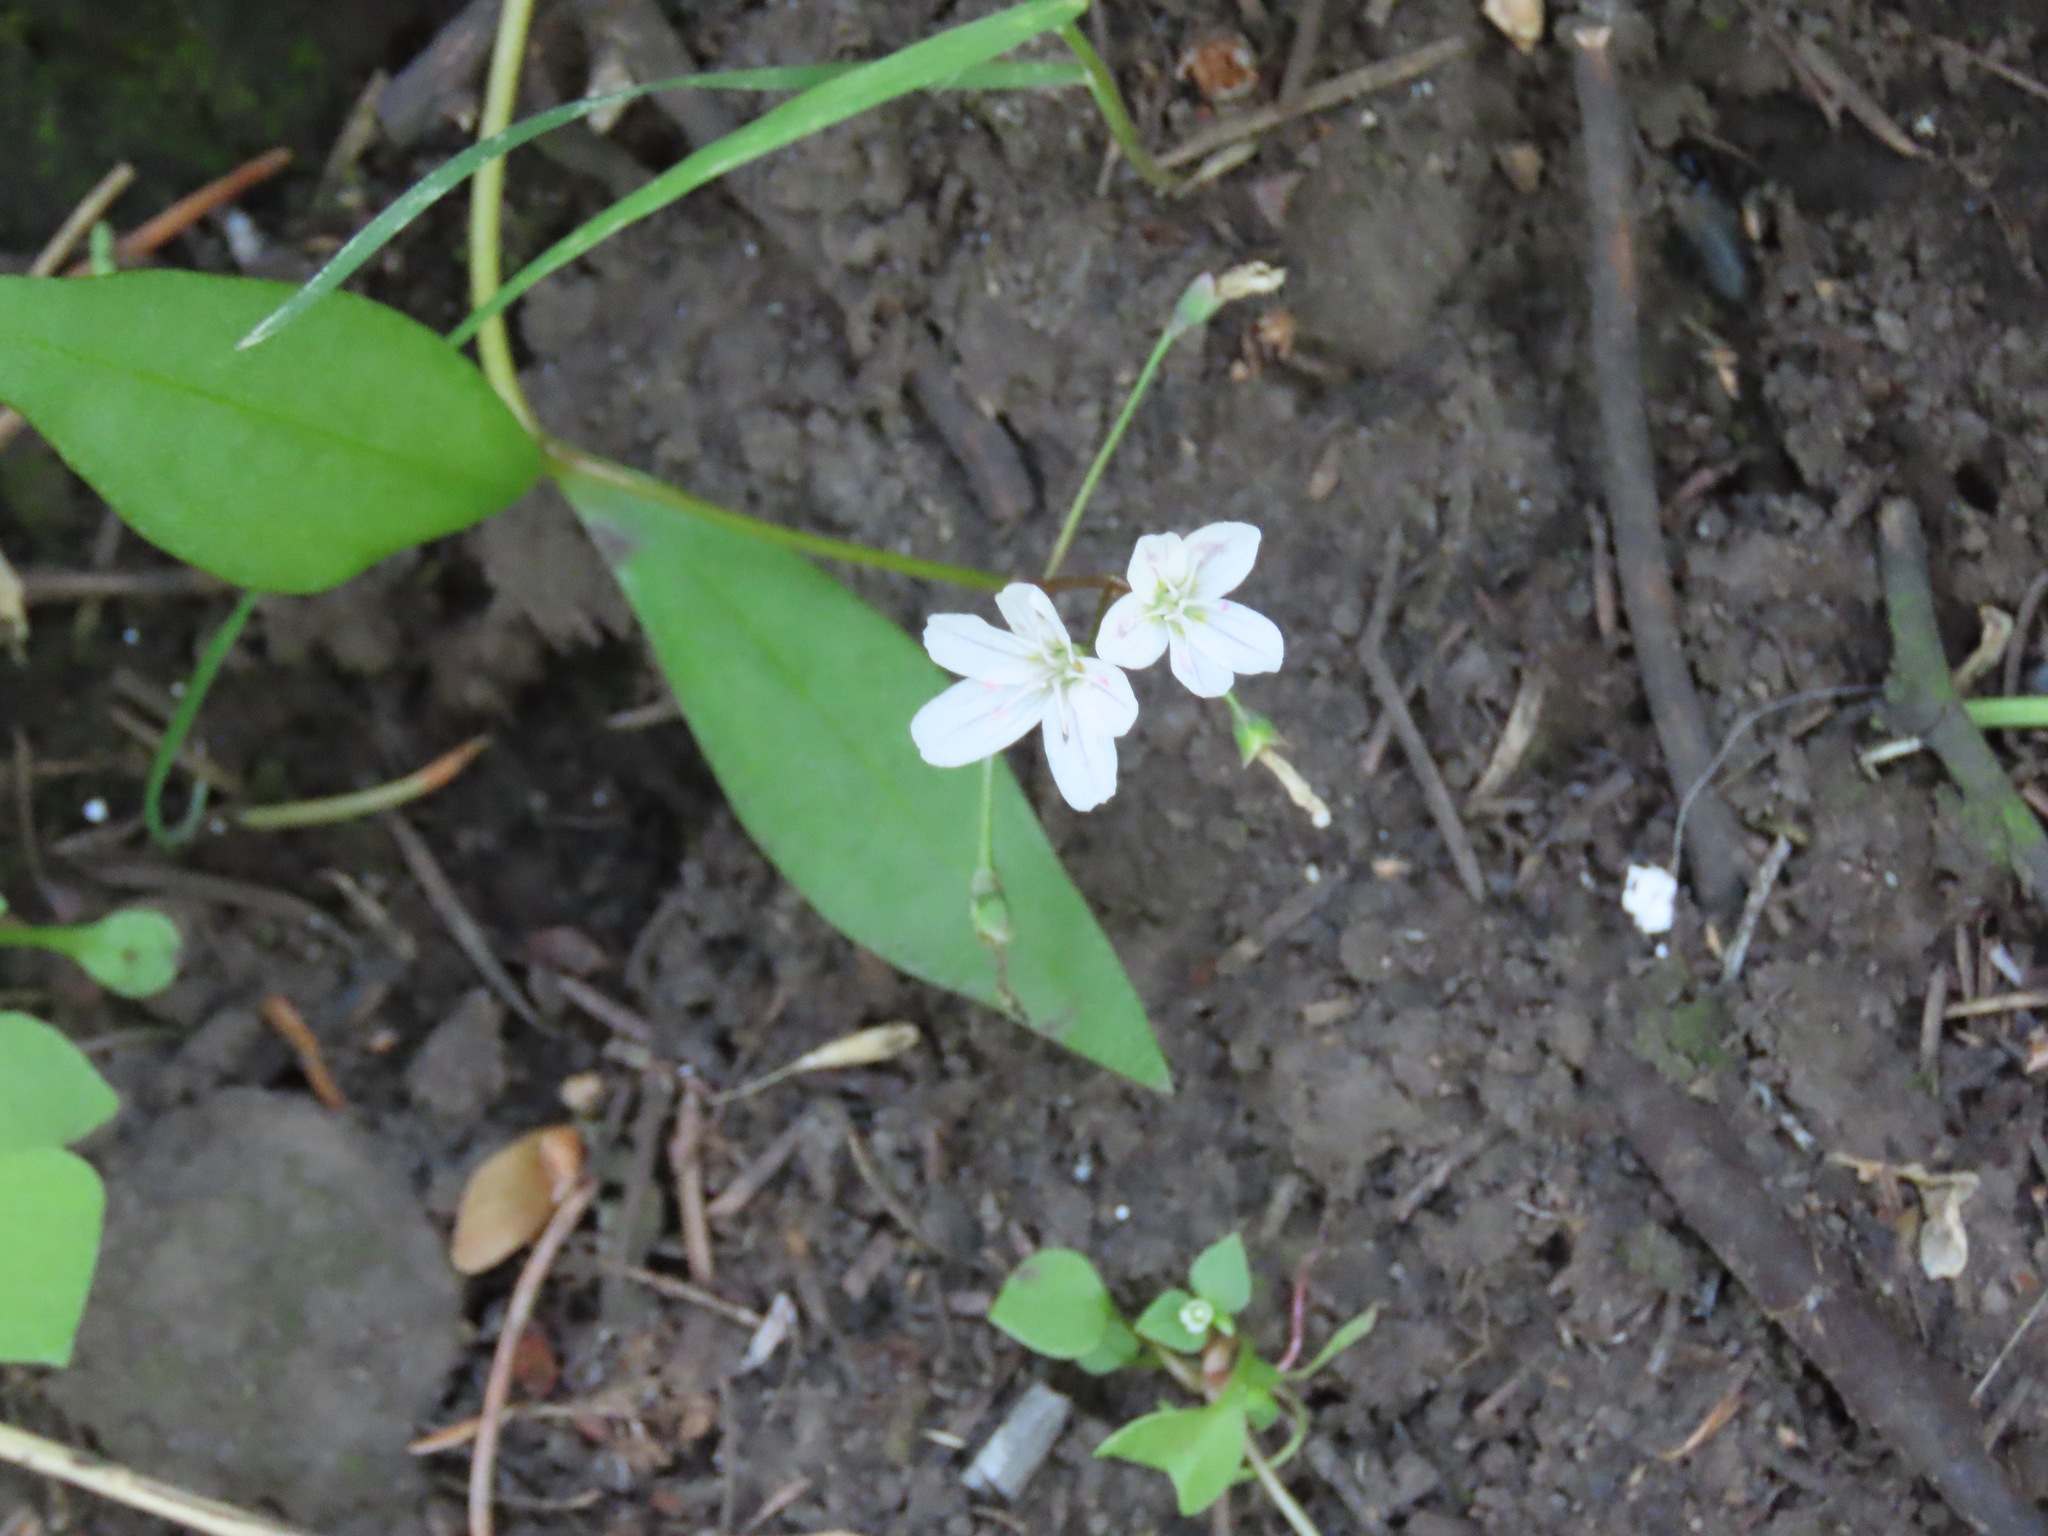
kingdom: Plantae
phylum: Tracheophyta
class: Magnoliopsida
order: Caryophyllales
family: Montiaceae
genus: Claytonia
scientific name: Claytonia lanceolata
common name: Western spring-beauty
